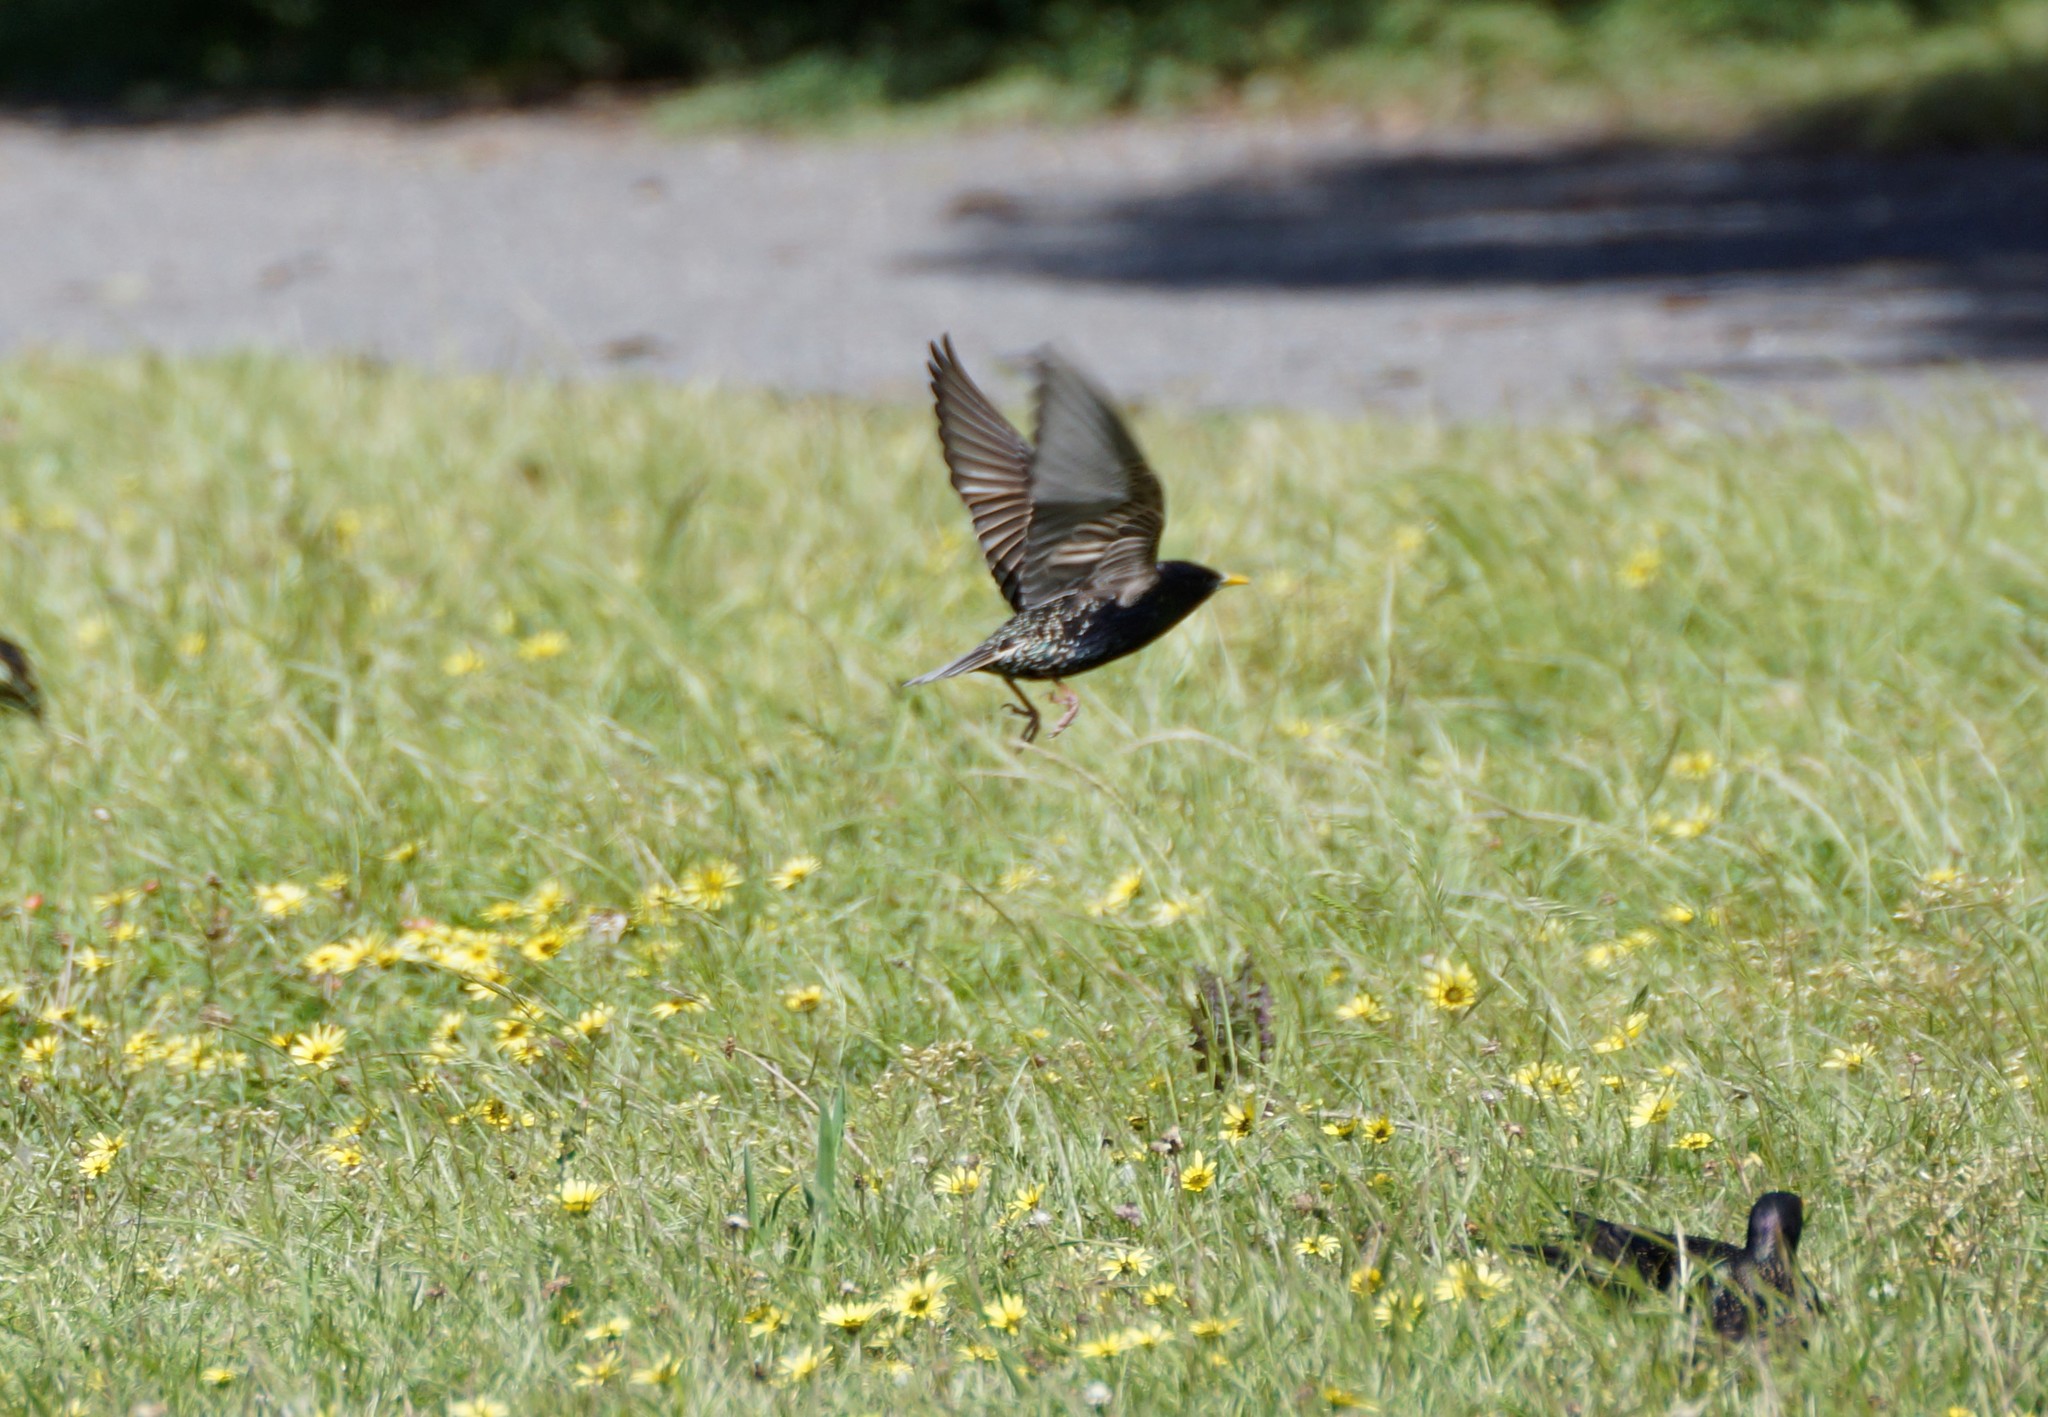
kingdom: Animalia
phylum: Chordata
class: Aves
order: Passeriformes
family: Sturnidae
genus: Sturnus
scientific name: Sturnus vulgaris
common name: Common starling
